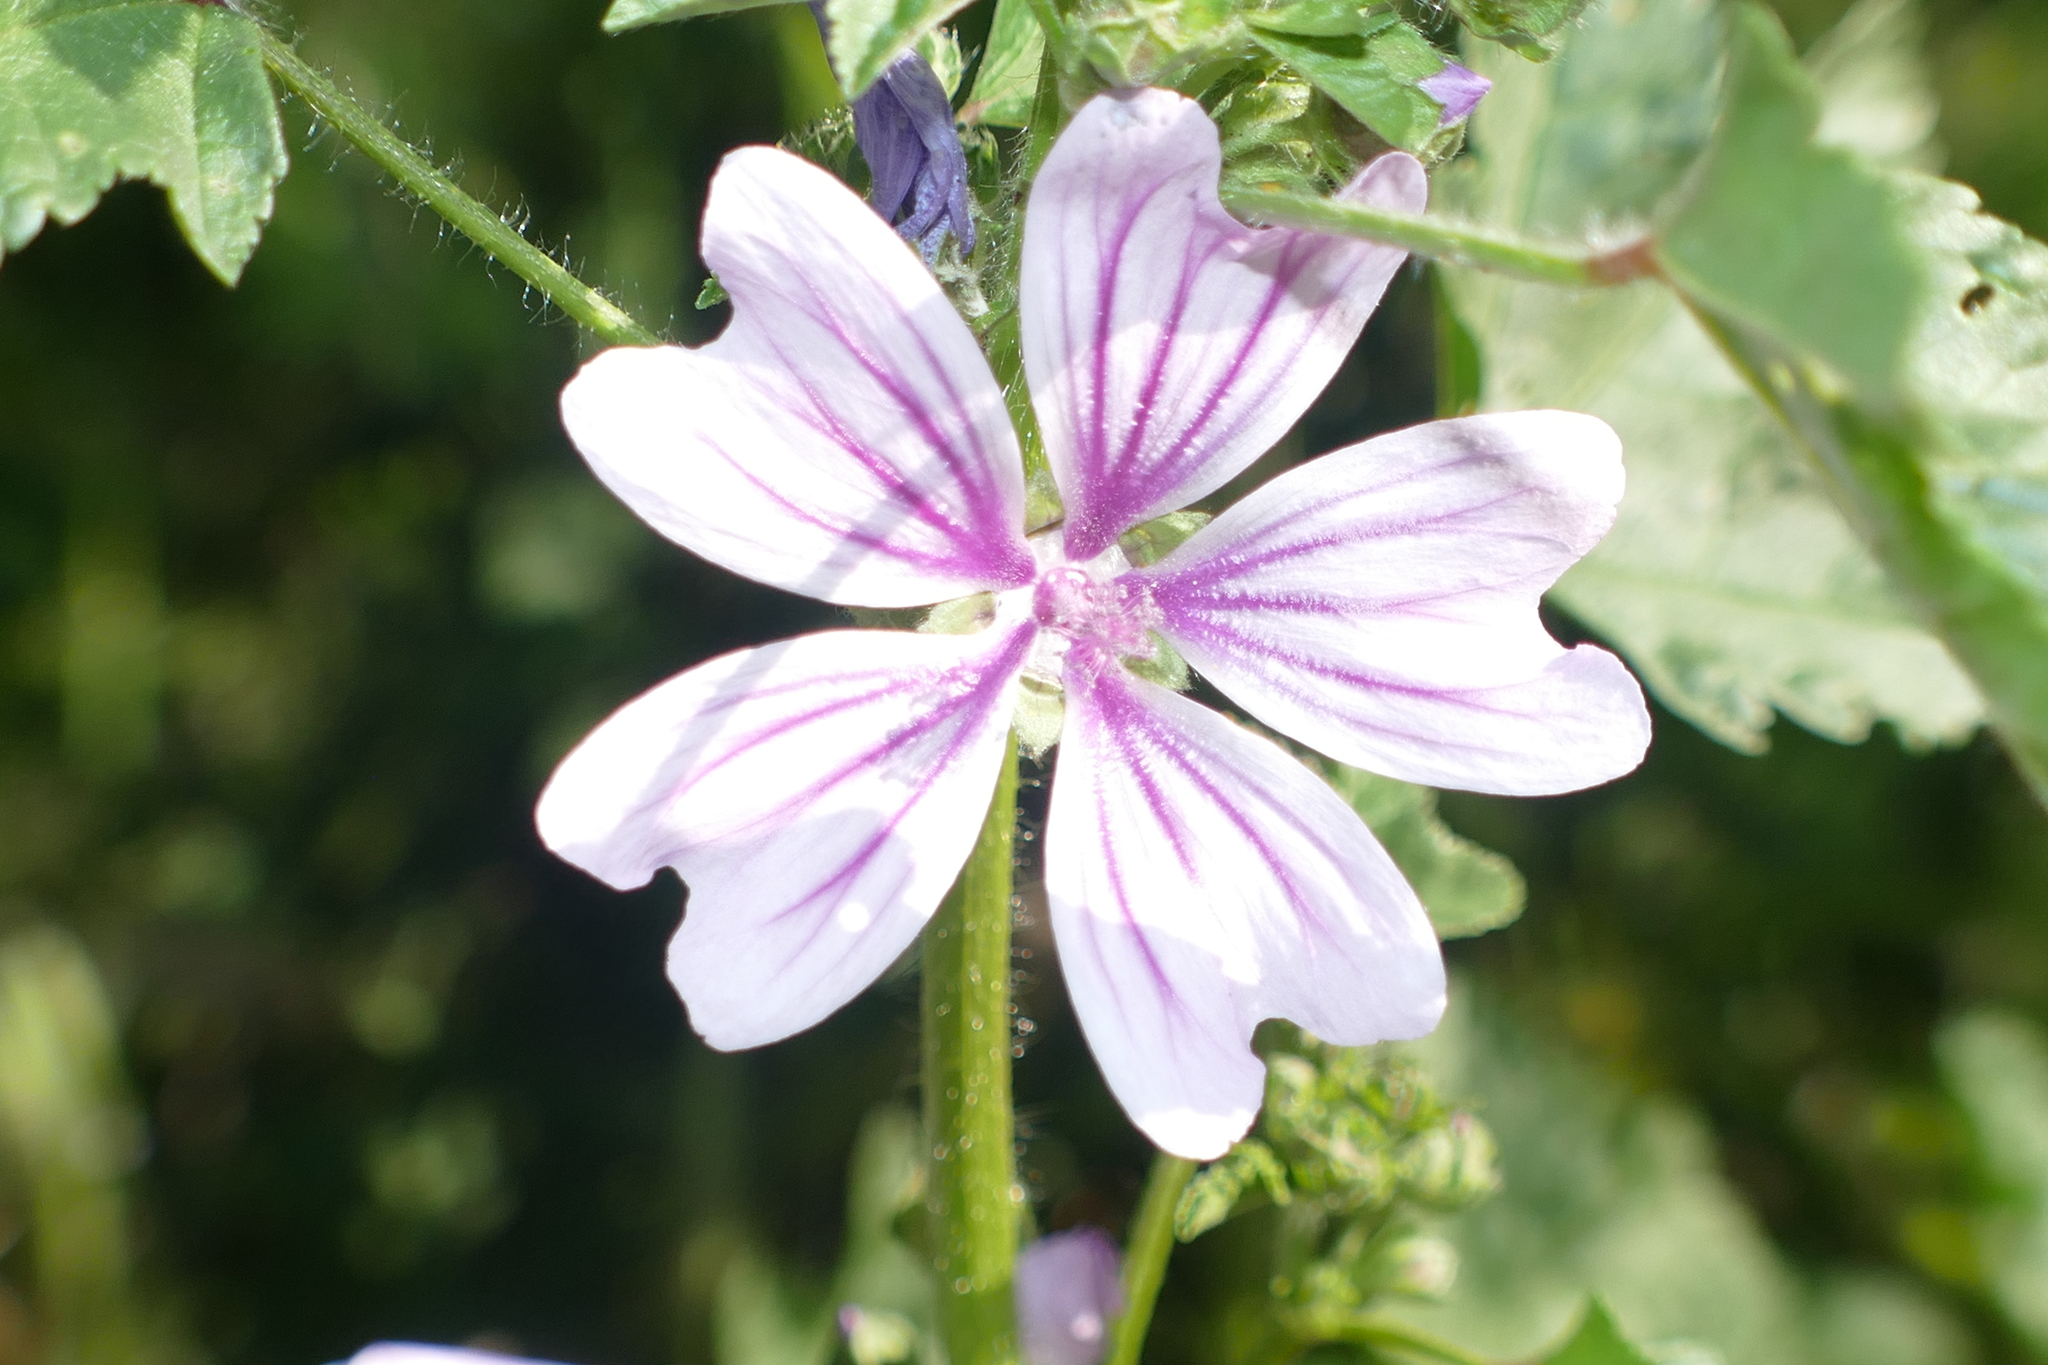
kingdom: Plantae
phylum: Tracheophyta
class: Magnoliopsida
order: Malvales
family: Malvaceae
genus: Malva
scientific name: Malva sylvestris
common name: Common mallow
